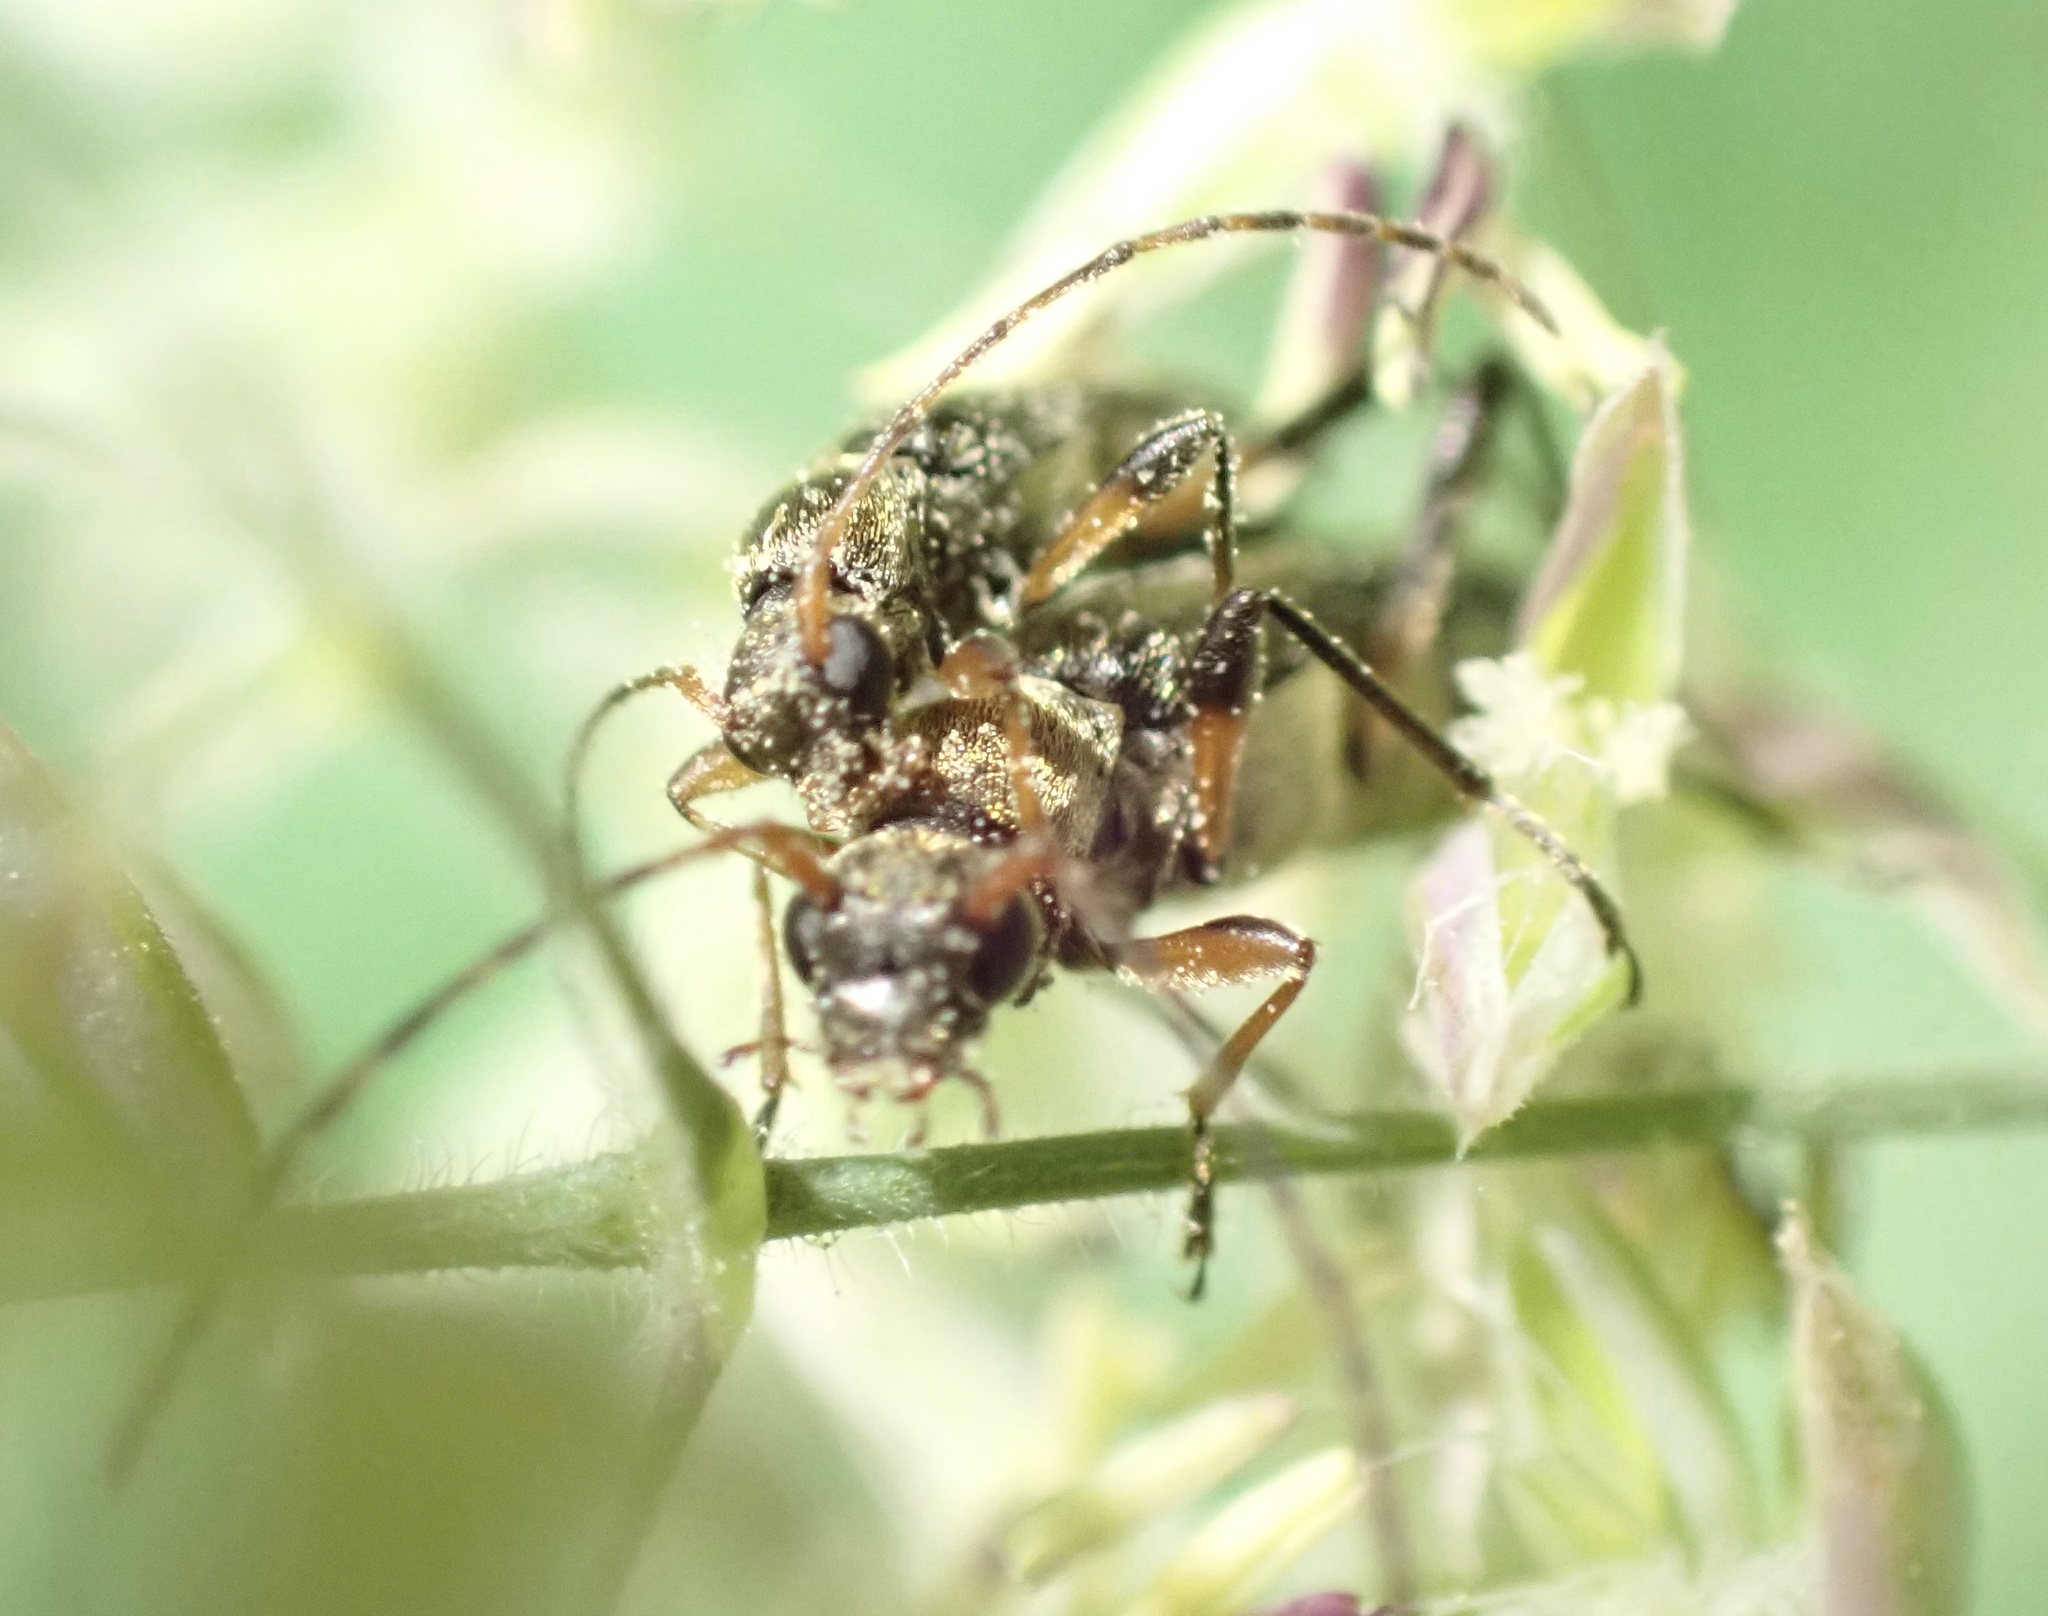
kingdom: Animalia
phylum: Arthropoda
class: Insecta
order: Coleoptera
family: Cerambycidae
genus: Grammoptera
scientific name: Grammoptera ruficornis
